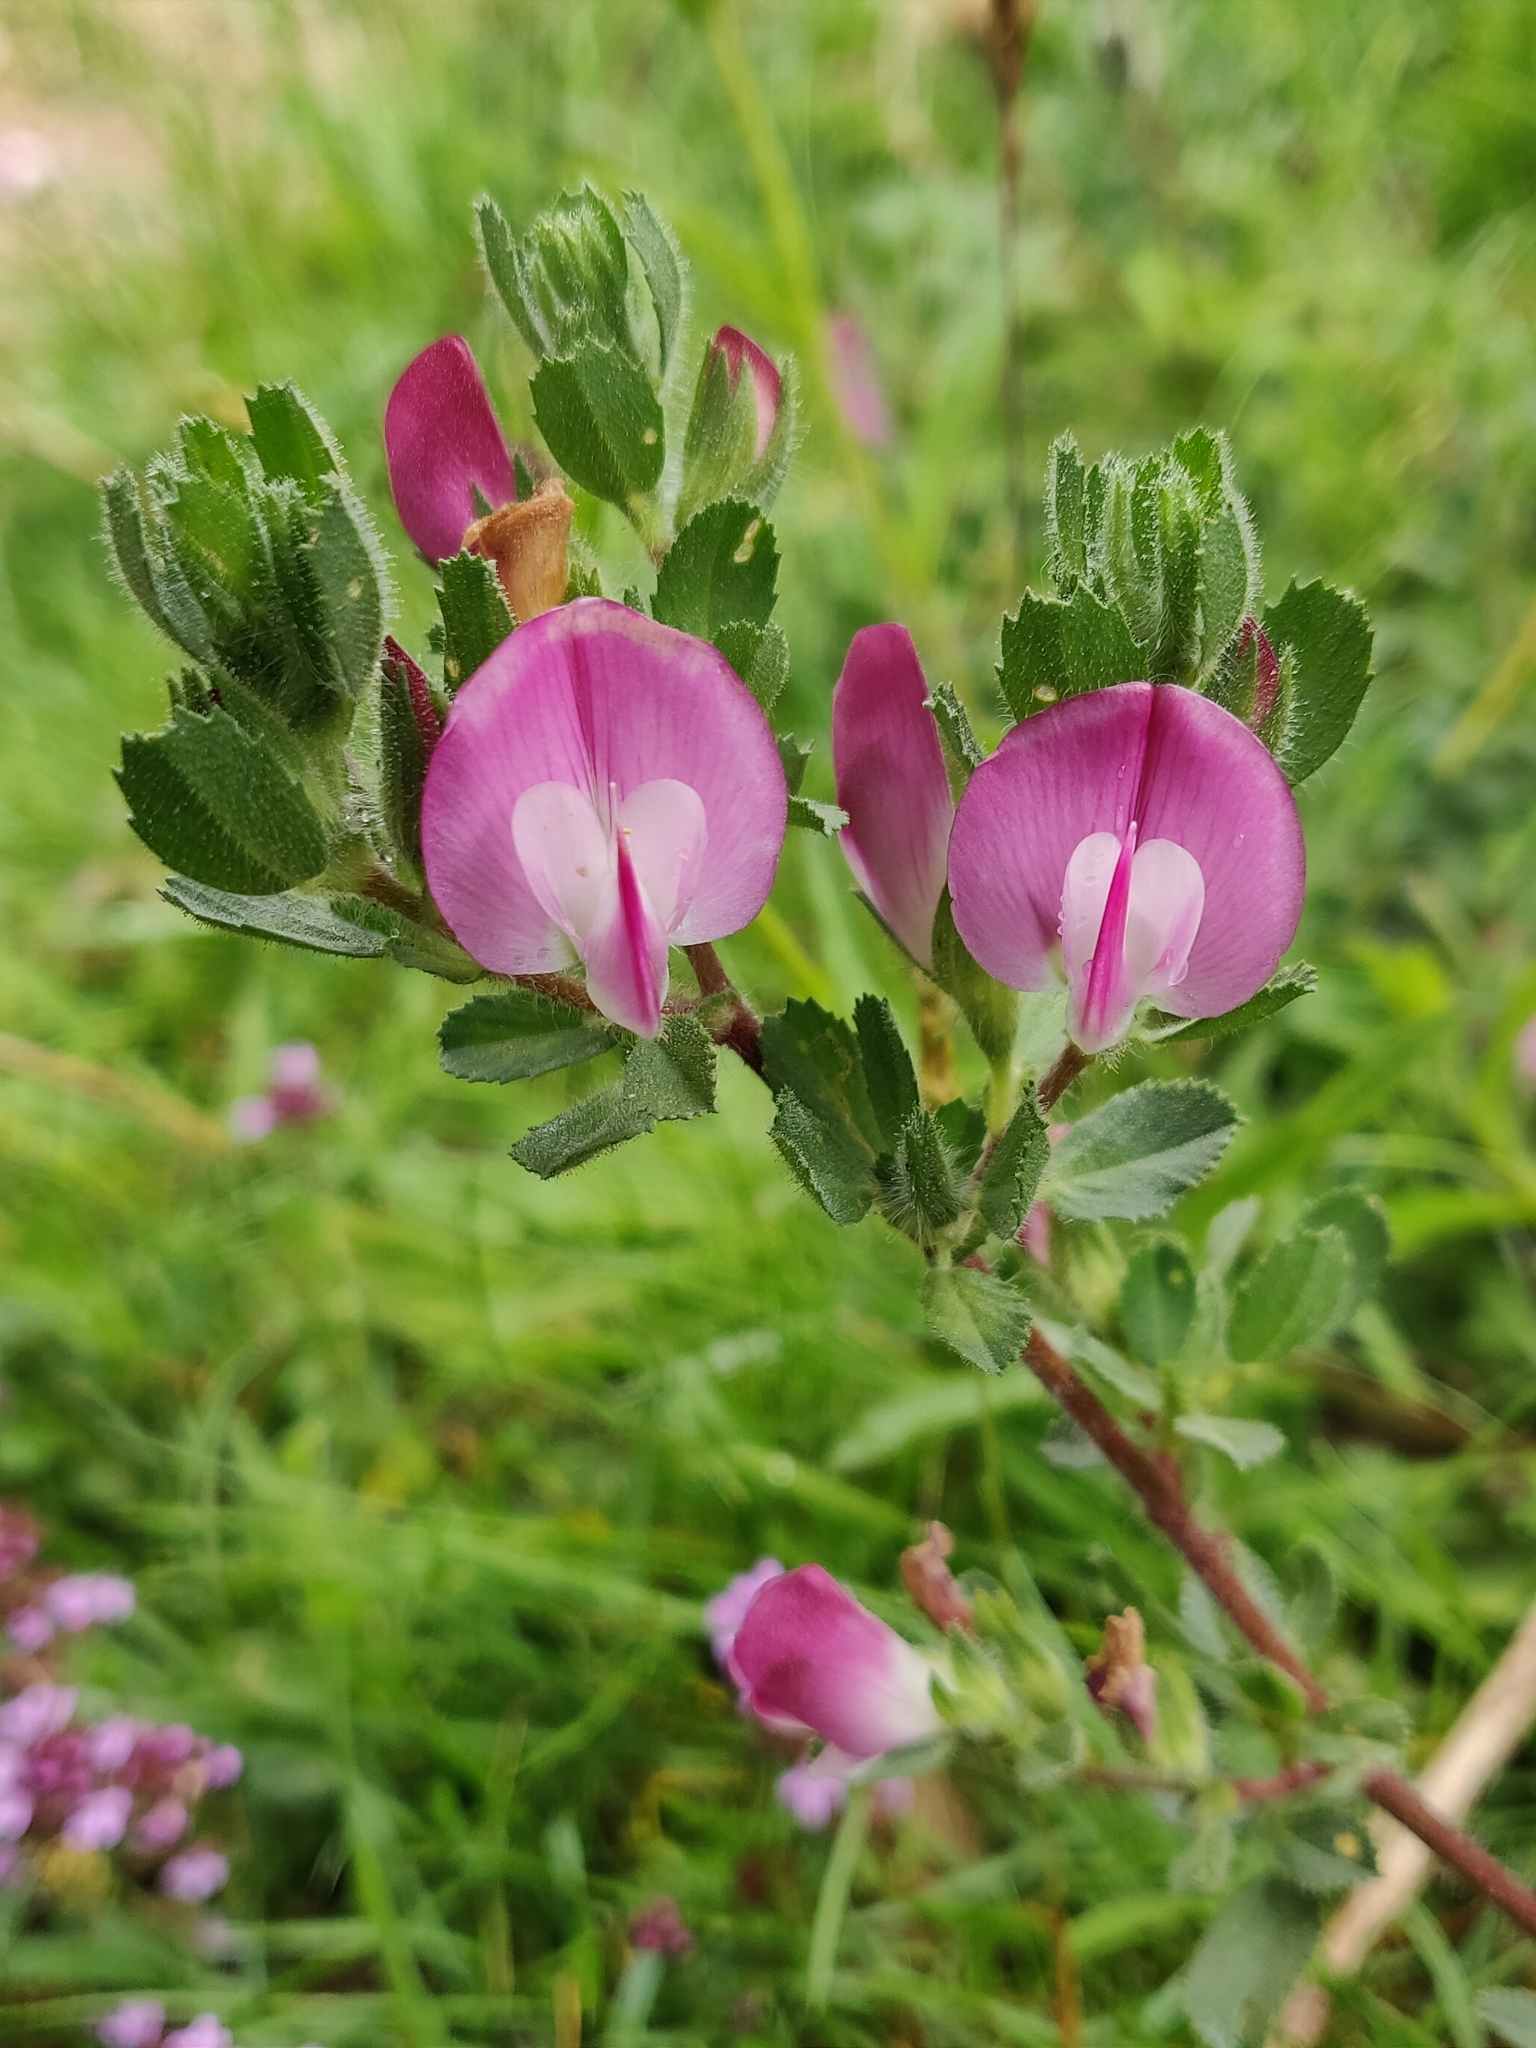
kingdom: Plantae
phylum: Tracheophyta
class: Magnoliopsida
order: Fabales
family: Fabaceae
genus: Ononis
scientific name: Ononis spinosa
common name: Spiny restharrow
